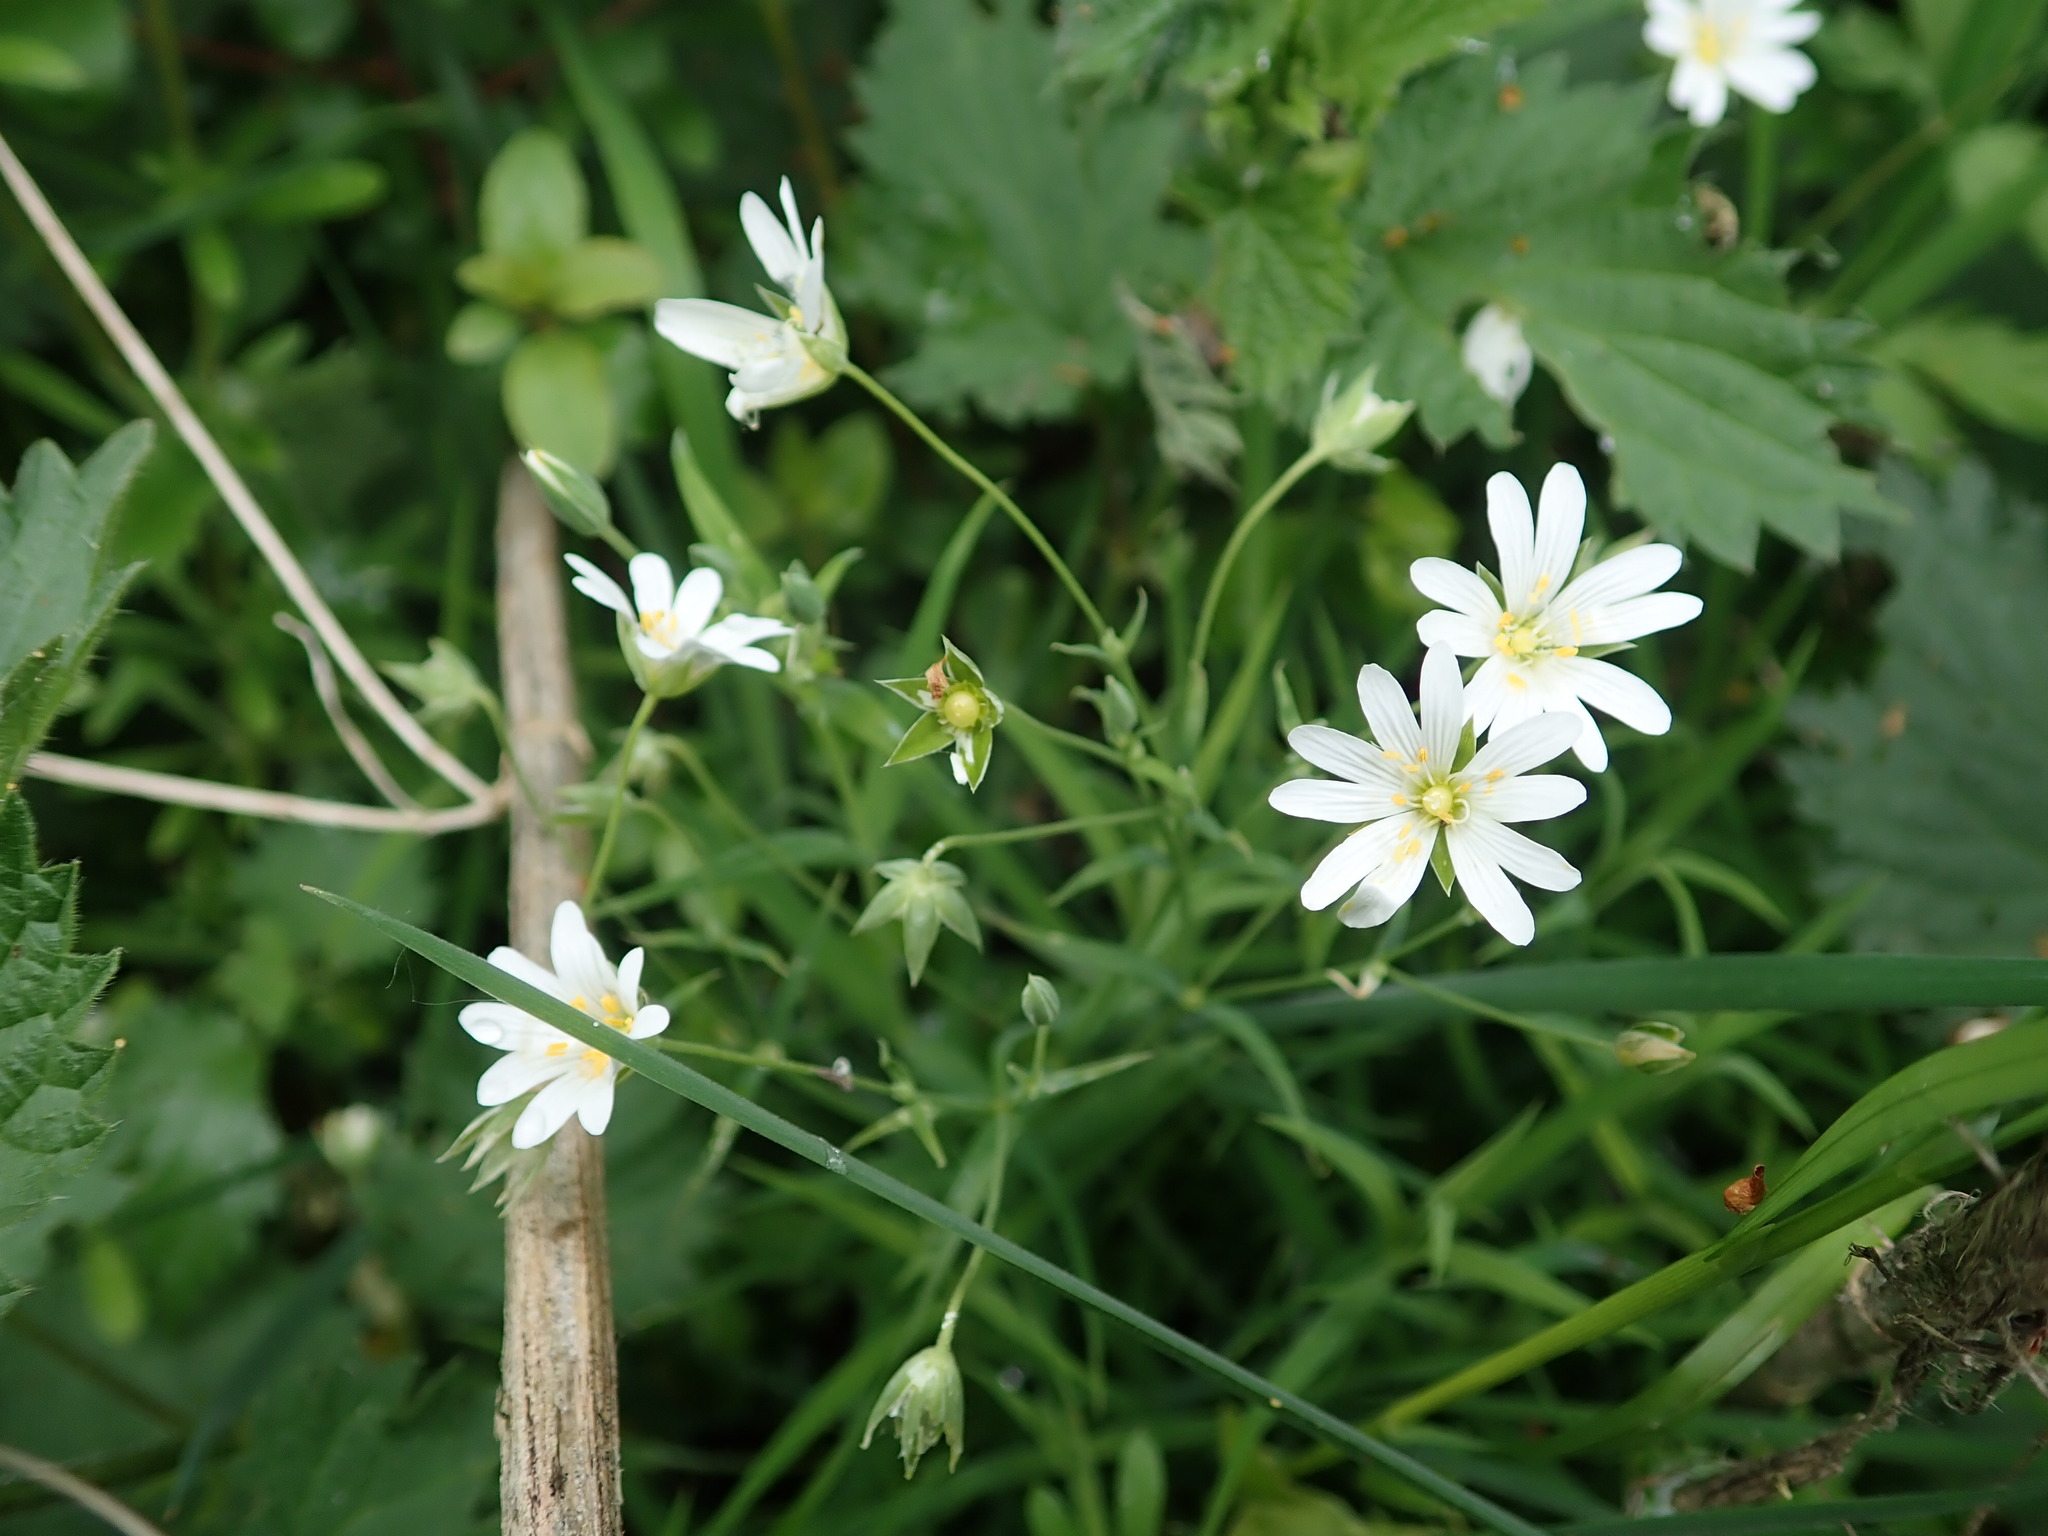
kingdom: Plantae
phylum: Tracheophyta
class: Magnoliopsida
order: Caryophyllales
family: Caryophyllaceae
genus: Rabelera
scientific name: Rabelera holostea
